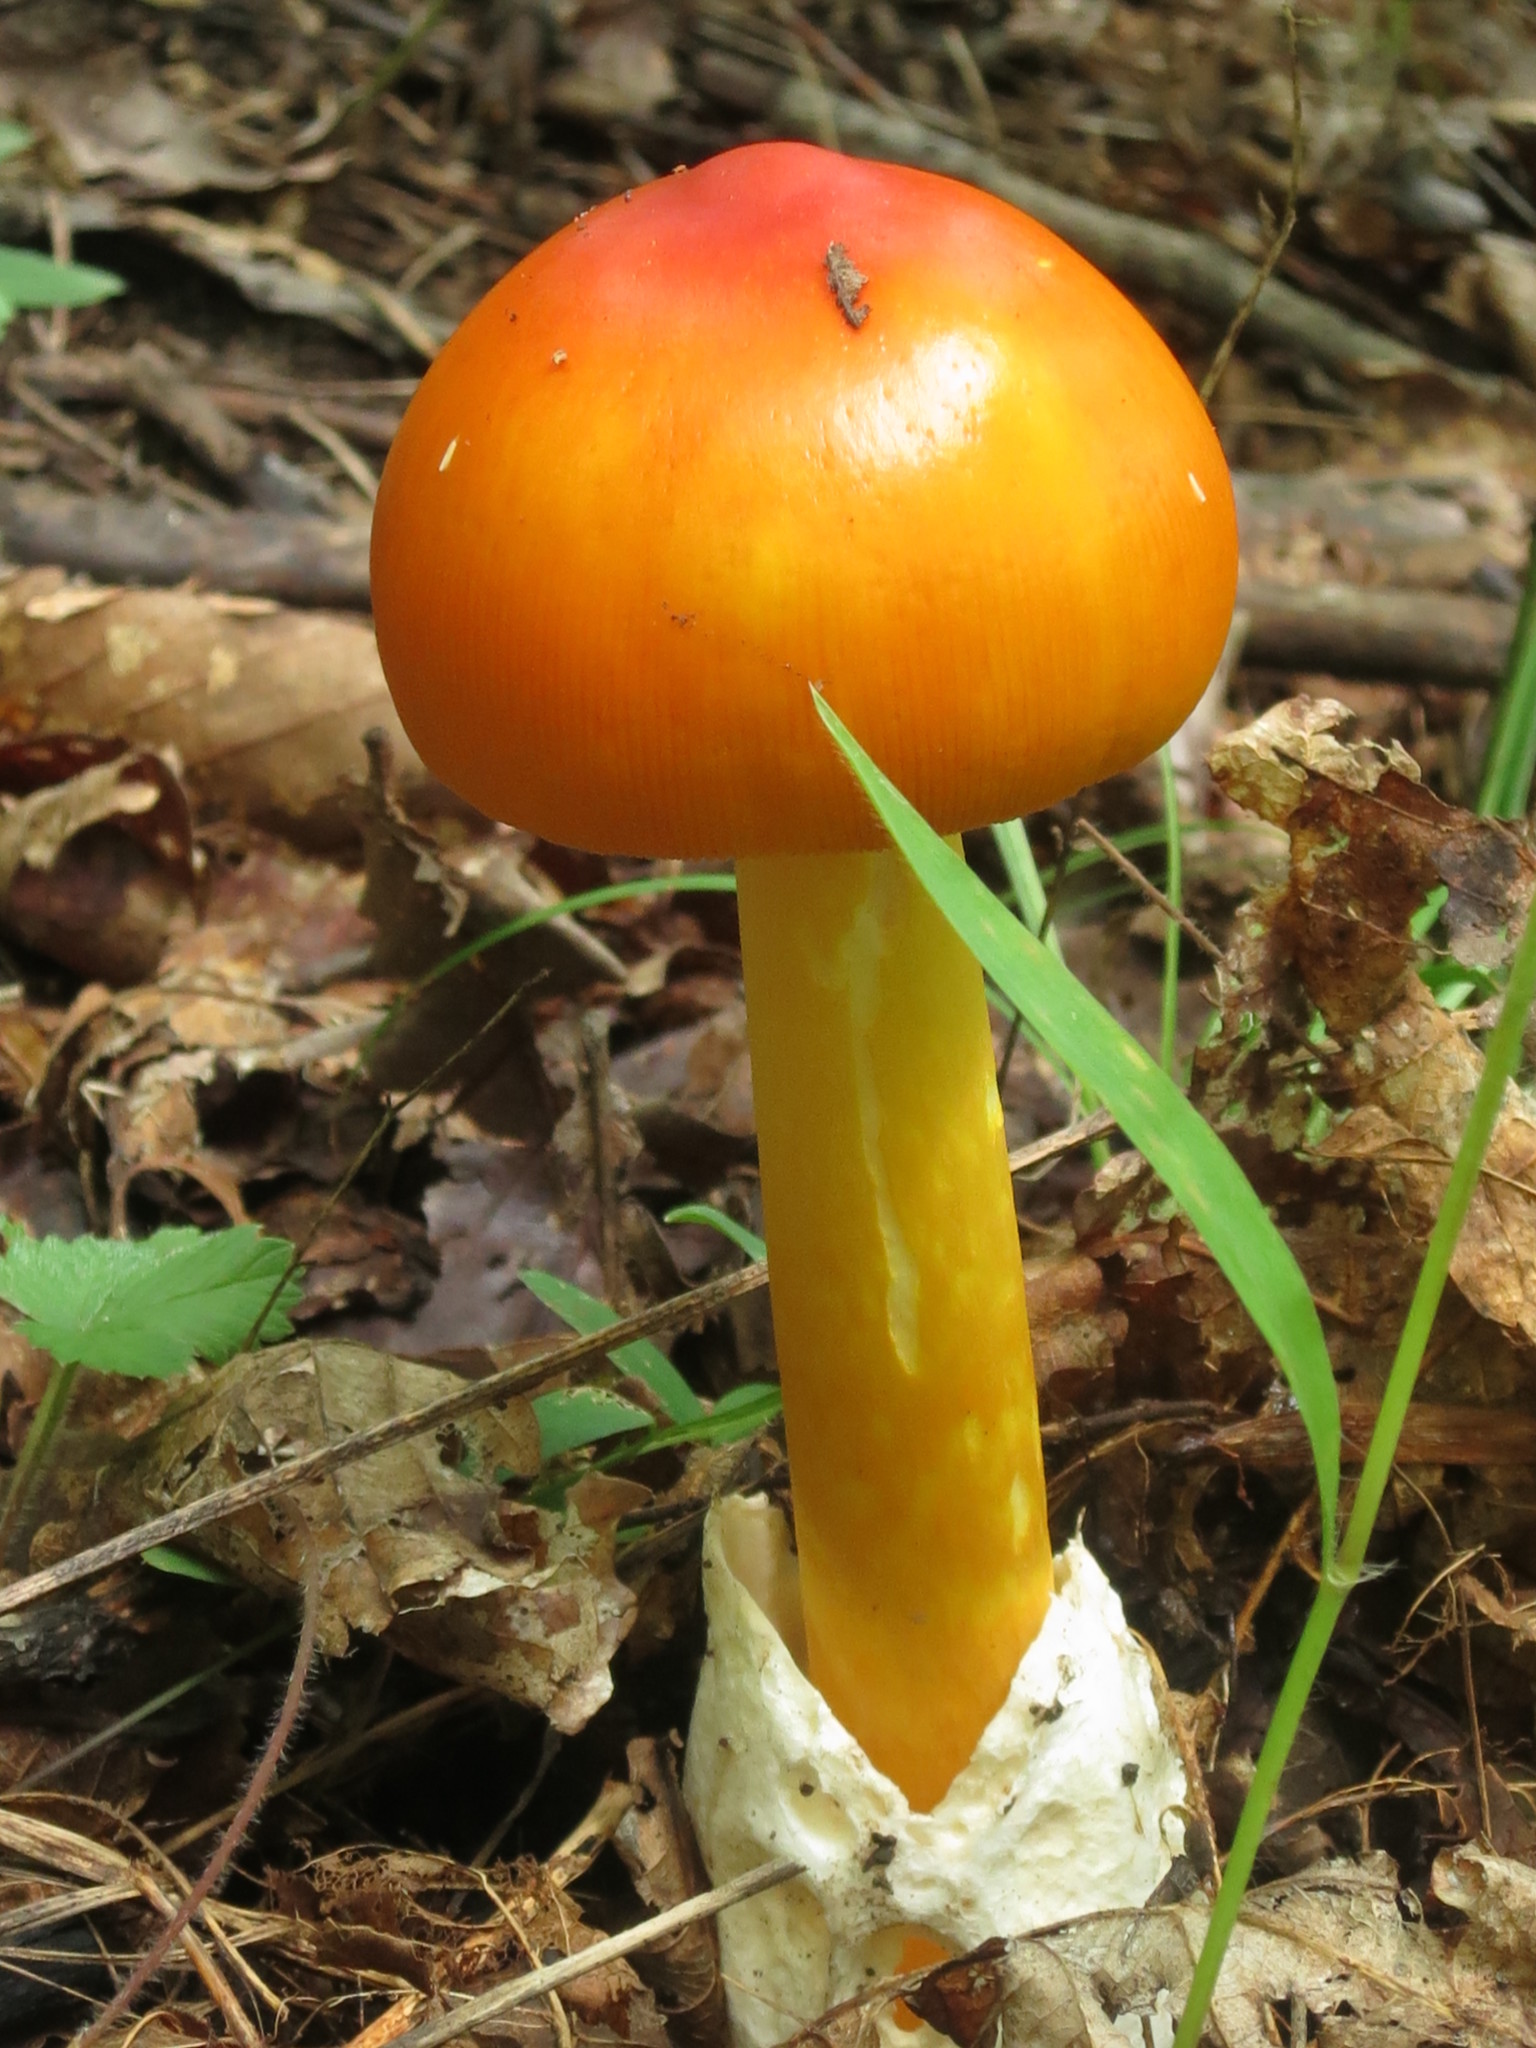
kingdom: Fungi
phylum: Basidiomycota
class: Agaricomycetes
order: Agaricales
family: Amanitaceae
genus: Amanita
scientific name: Amanita caesareoides
